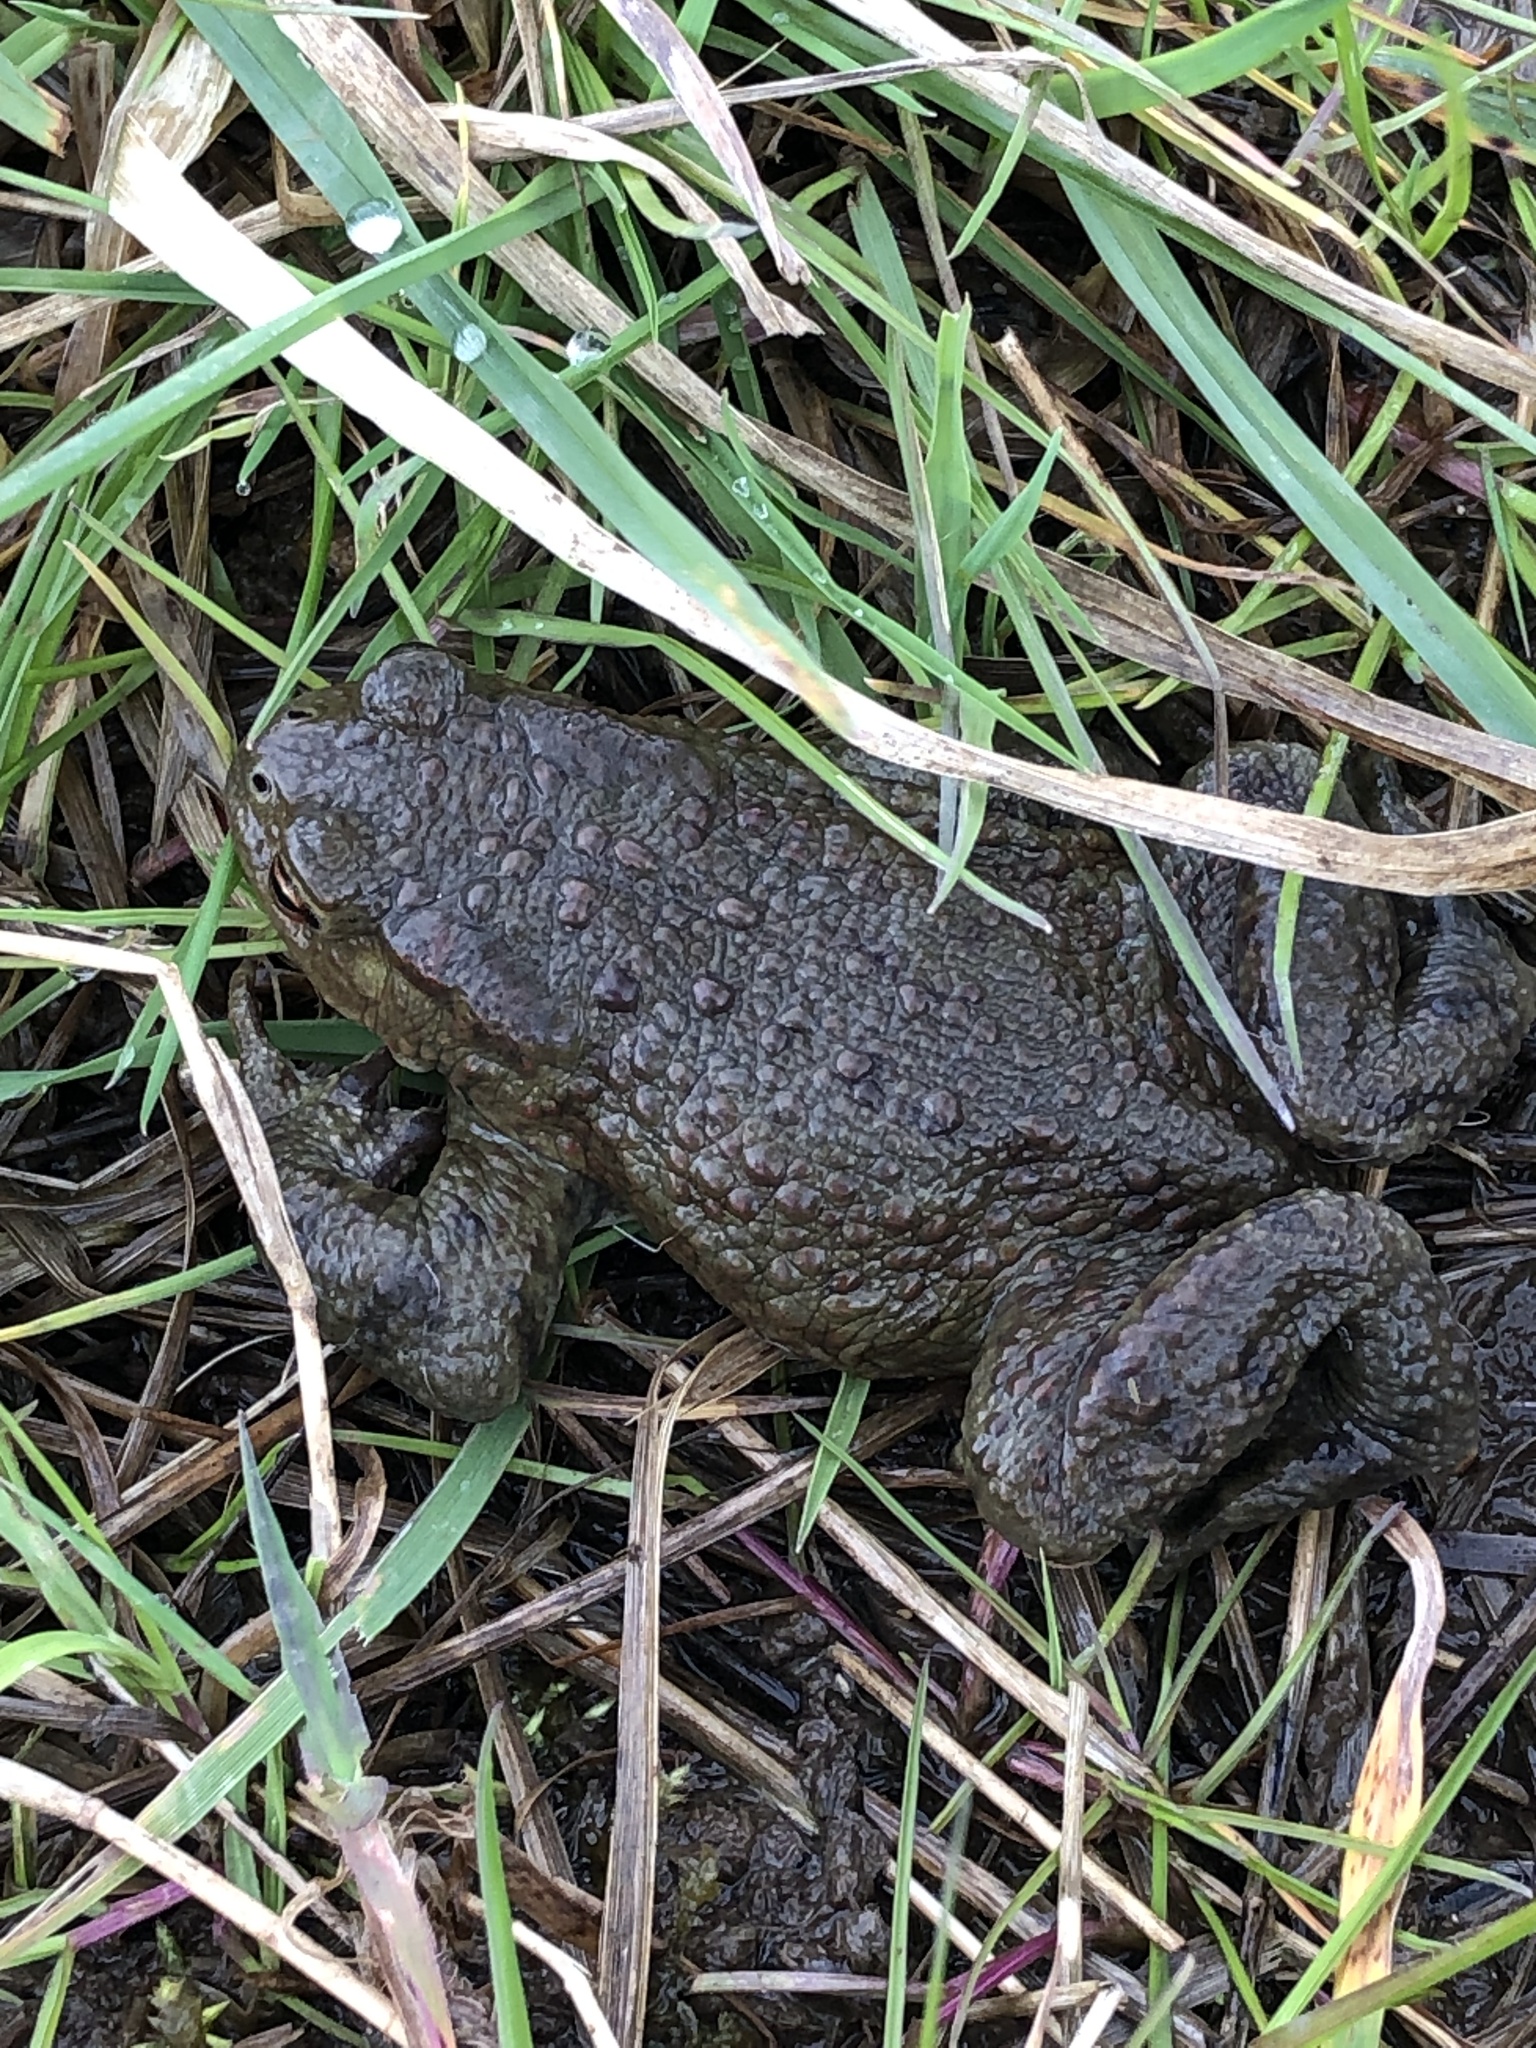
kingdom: Animalia
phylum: Chordata
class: Amphibia
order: Anura
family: Bufonidae
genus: Bufo
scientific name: Bufo bufo
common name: Common toad
